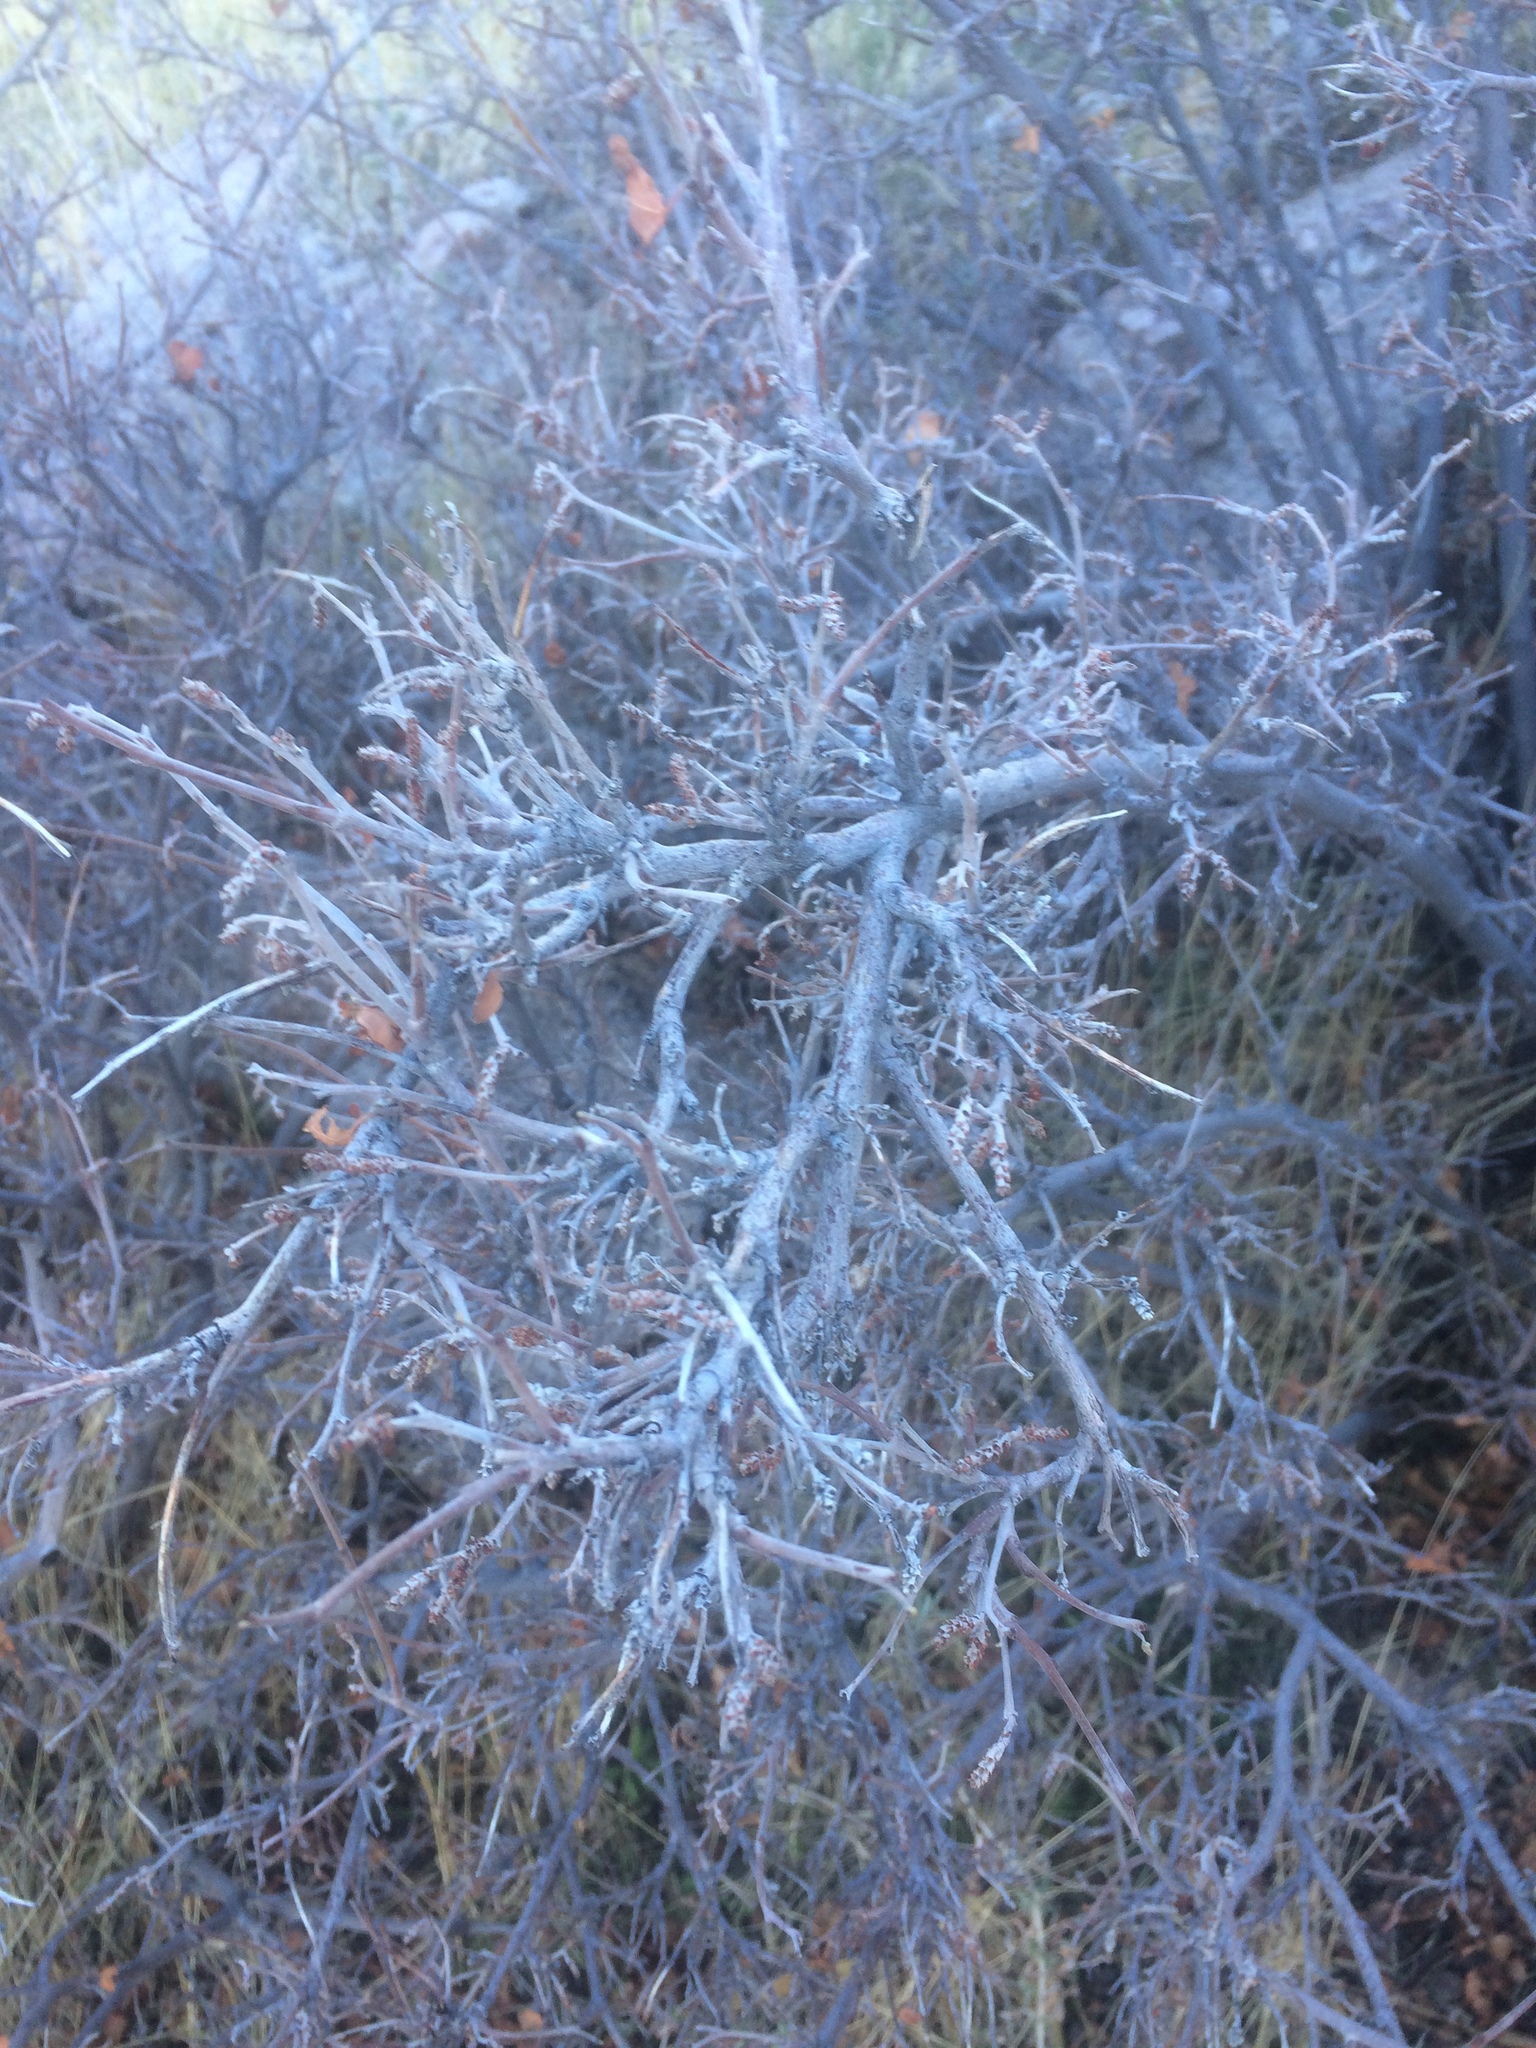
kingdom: Plantae
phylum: Tracheophyta
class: Magnoliopsida
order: Sapindales
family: Anacardiaceae
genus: Rhus
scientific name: Rhus aromatica
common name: Aromatic sumac
